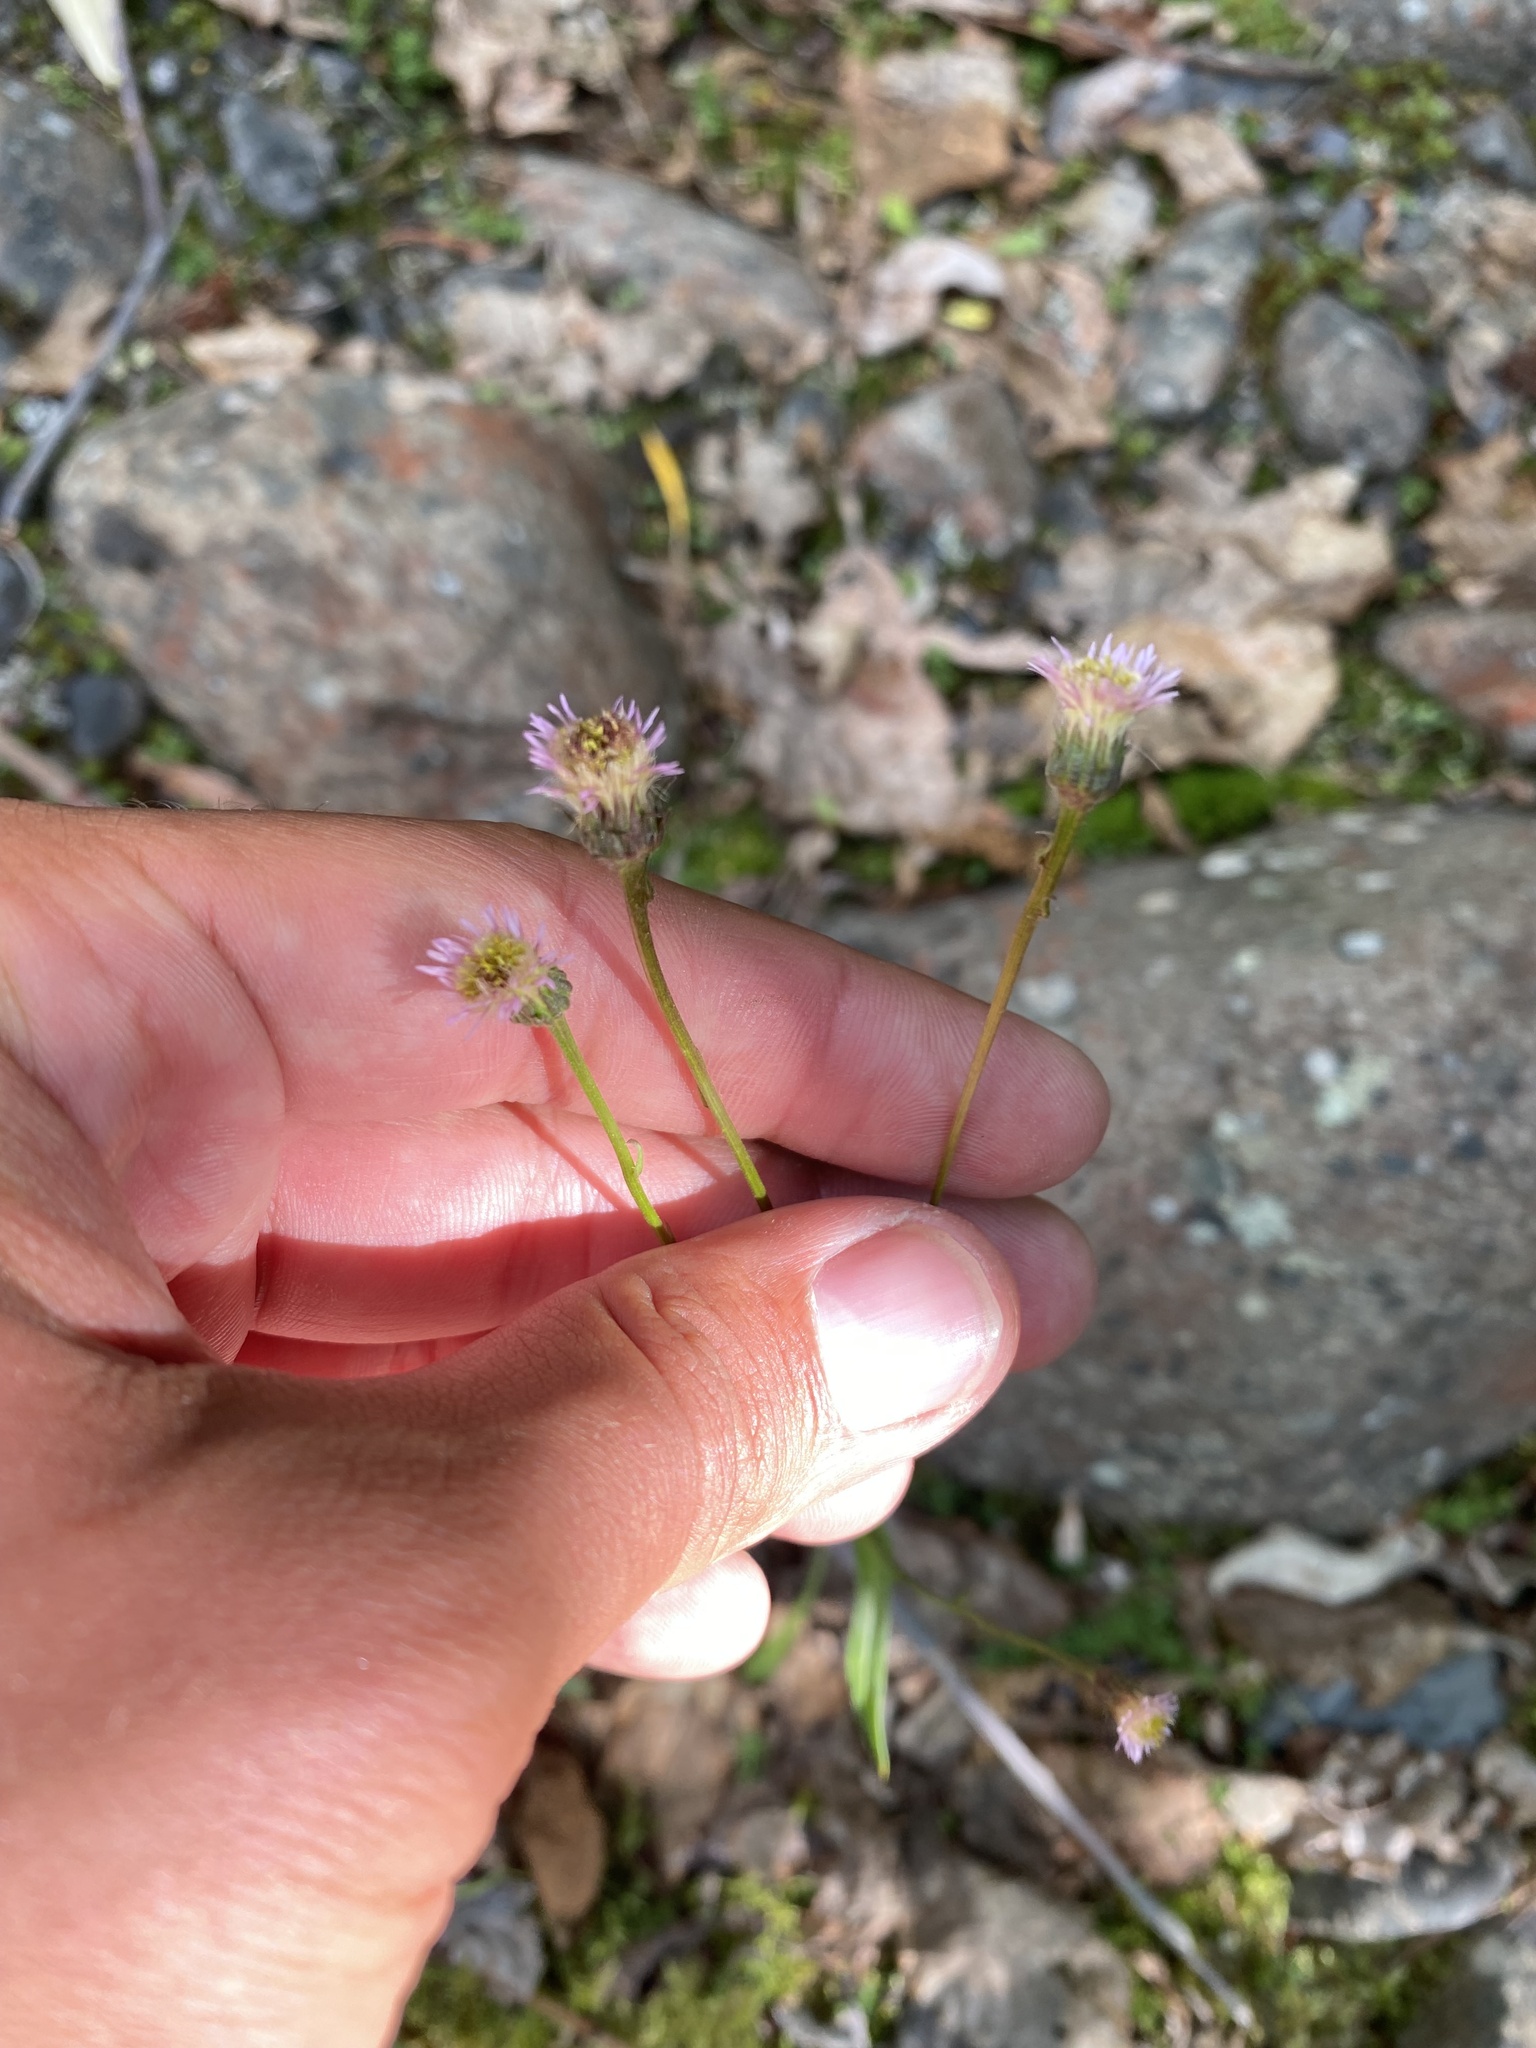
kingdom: Plantae
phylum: Tracheophyta
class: Magnoliopsida
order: Asterales
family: Asteraceae
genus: Erigeron
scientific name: Erigeron acris
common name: Blue fleabane
